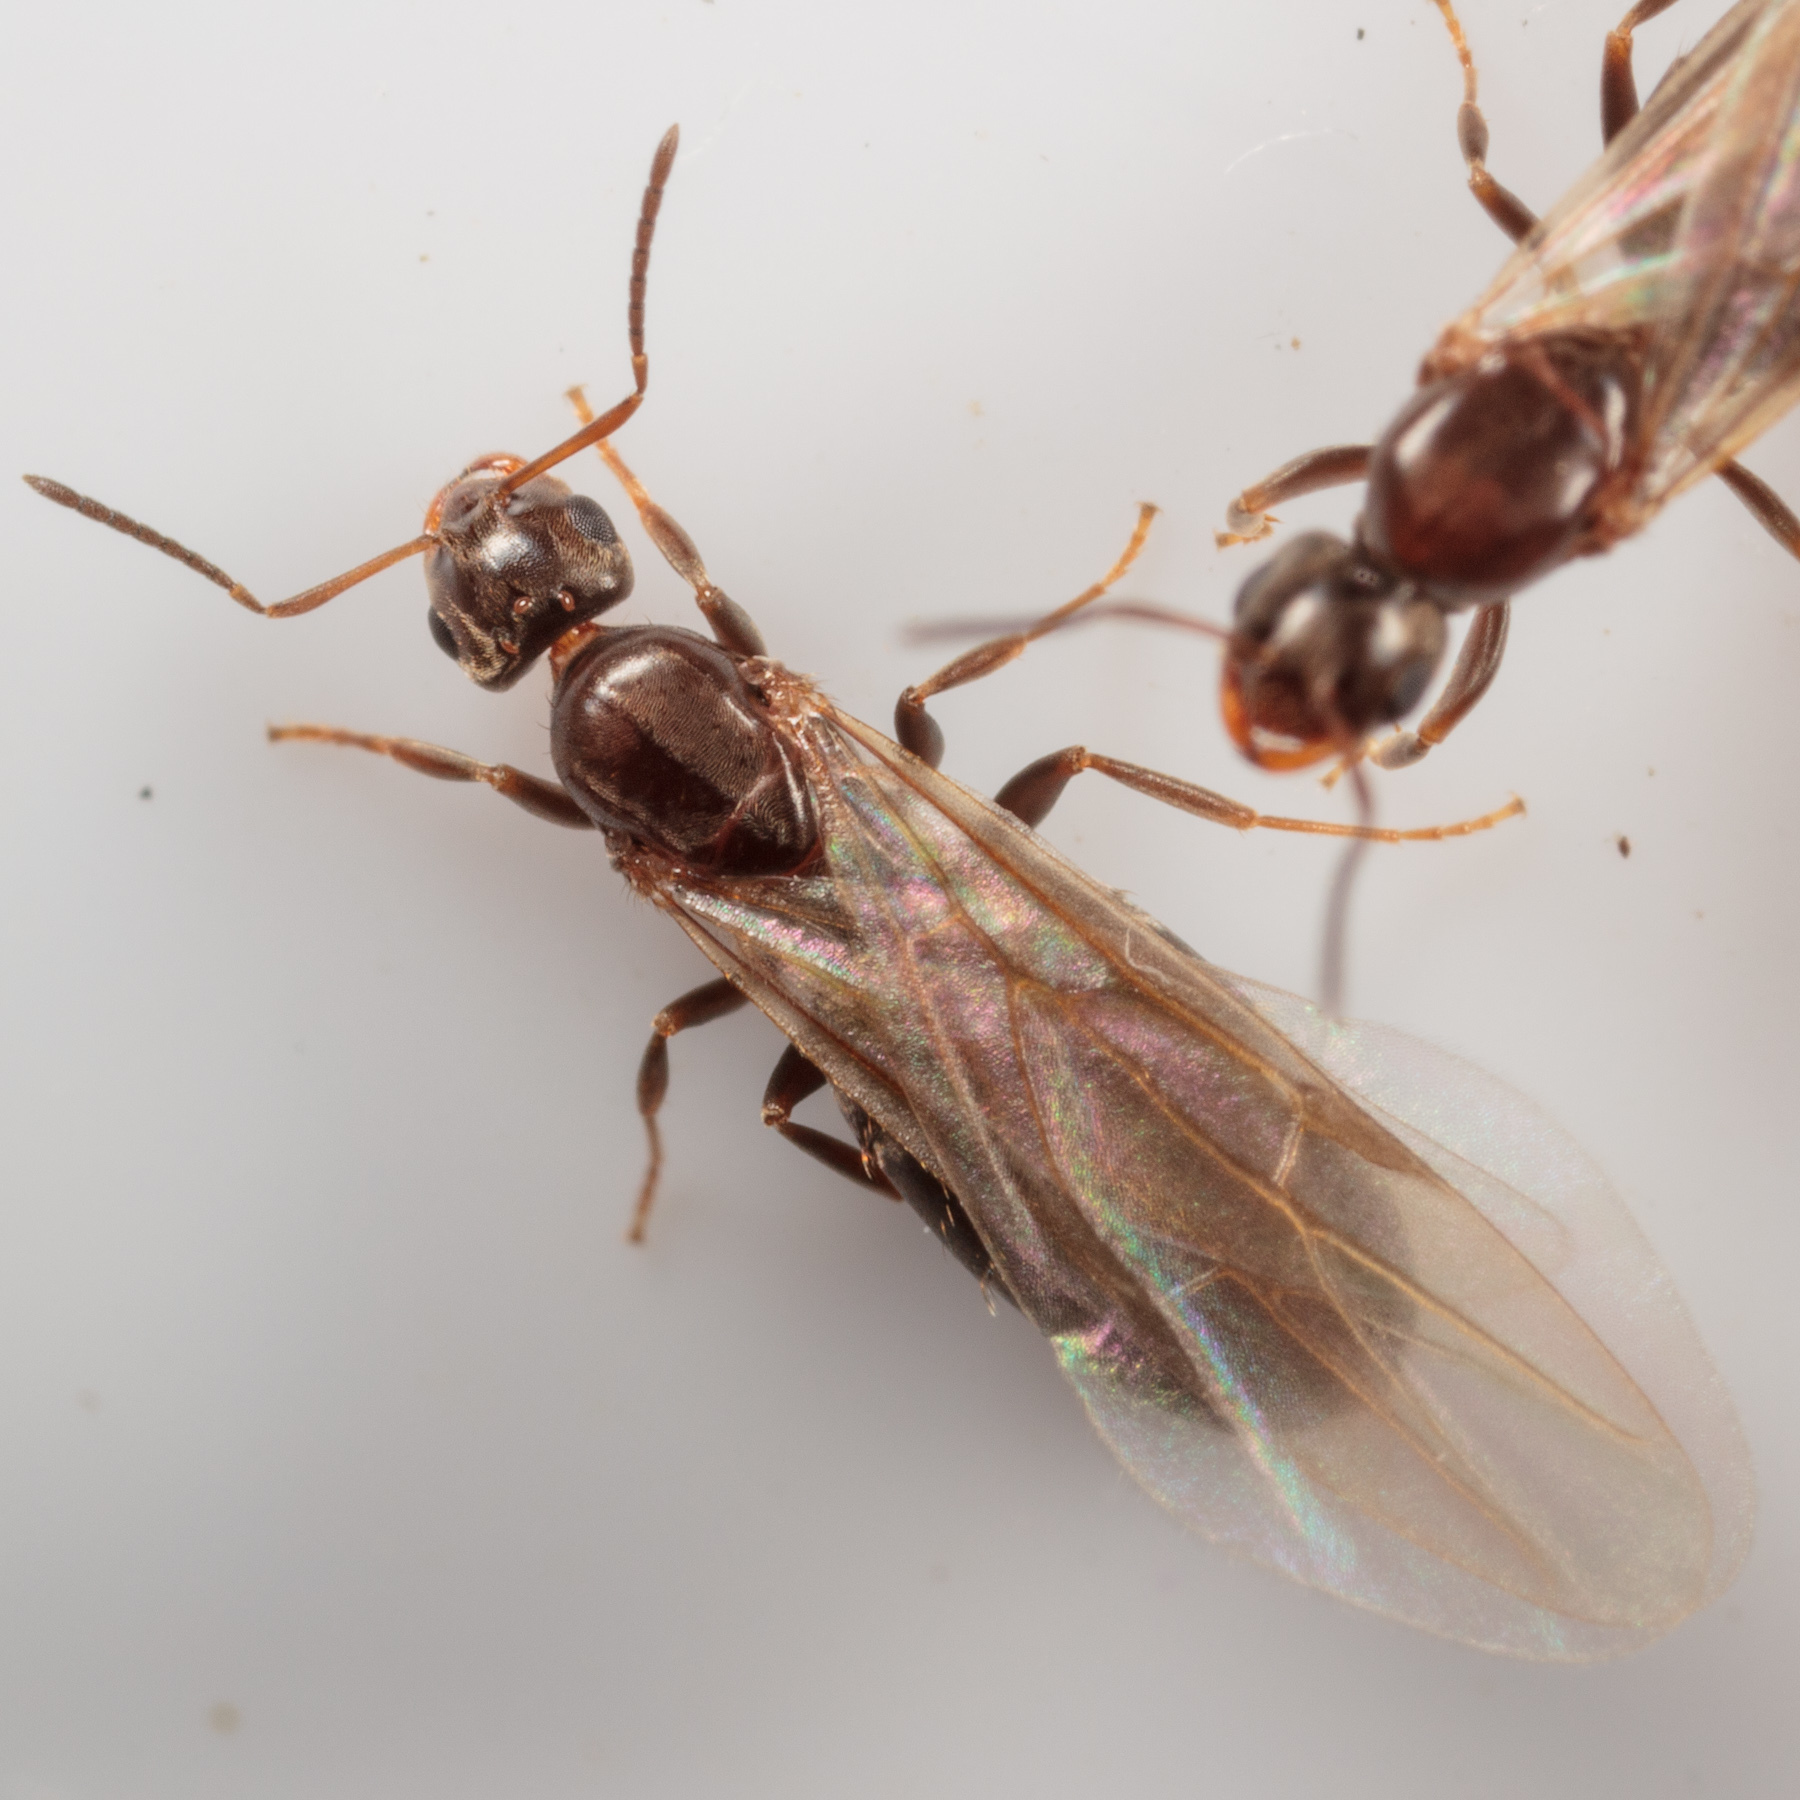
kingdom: Animalia
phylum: Arthropoda
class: Insecta
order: Hymenoptera
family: Formicidae
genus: Brachymyrmex
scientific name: Brachymyrmex patagonicus
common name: Dark rover ant
